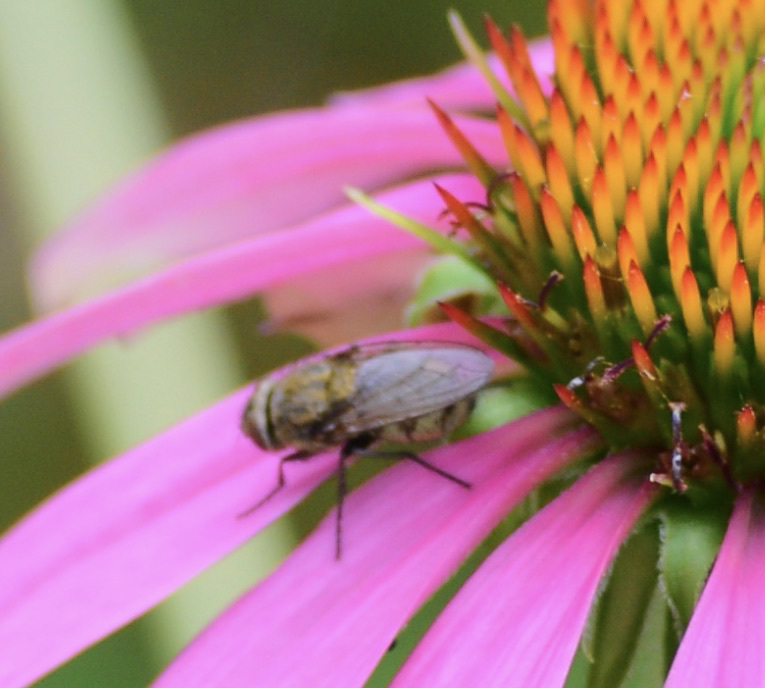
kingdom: Animalia
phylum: Arthropoda
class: Insecta
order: Diptera
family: Polleniidae
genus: Pollenia
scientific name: Pollenia
